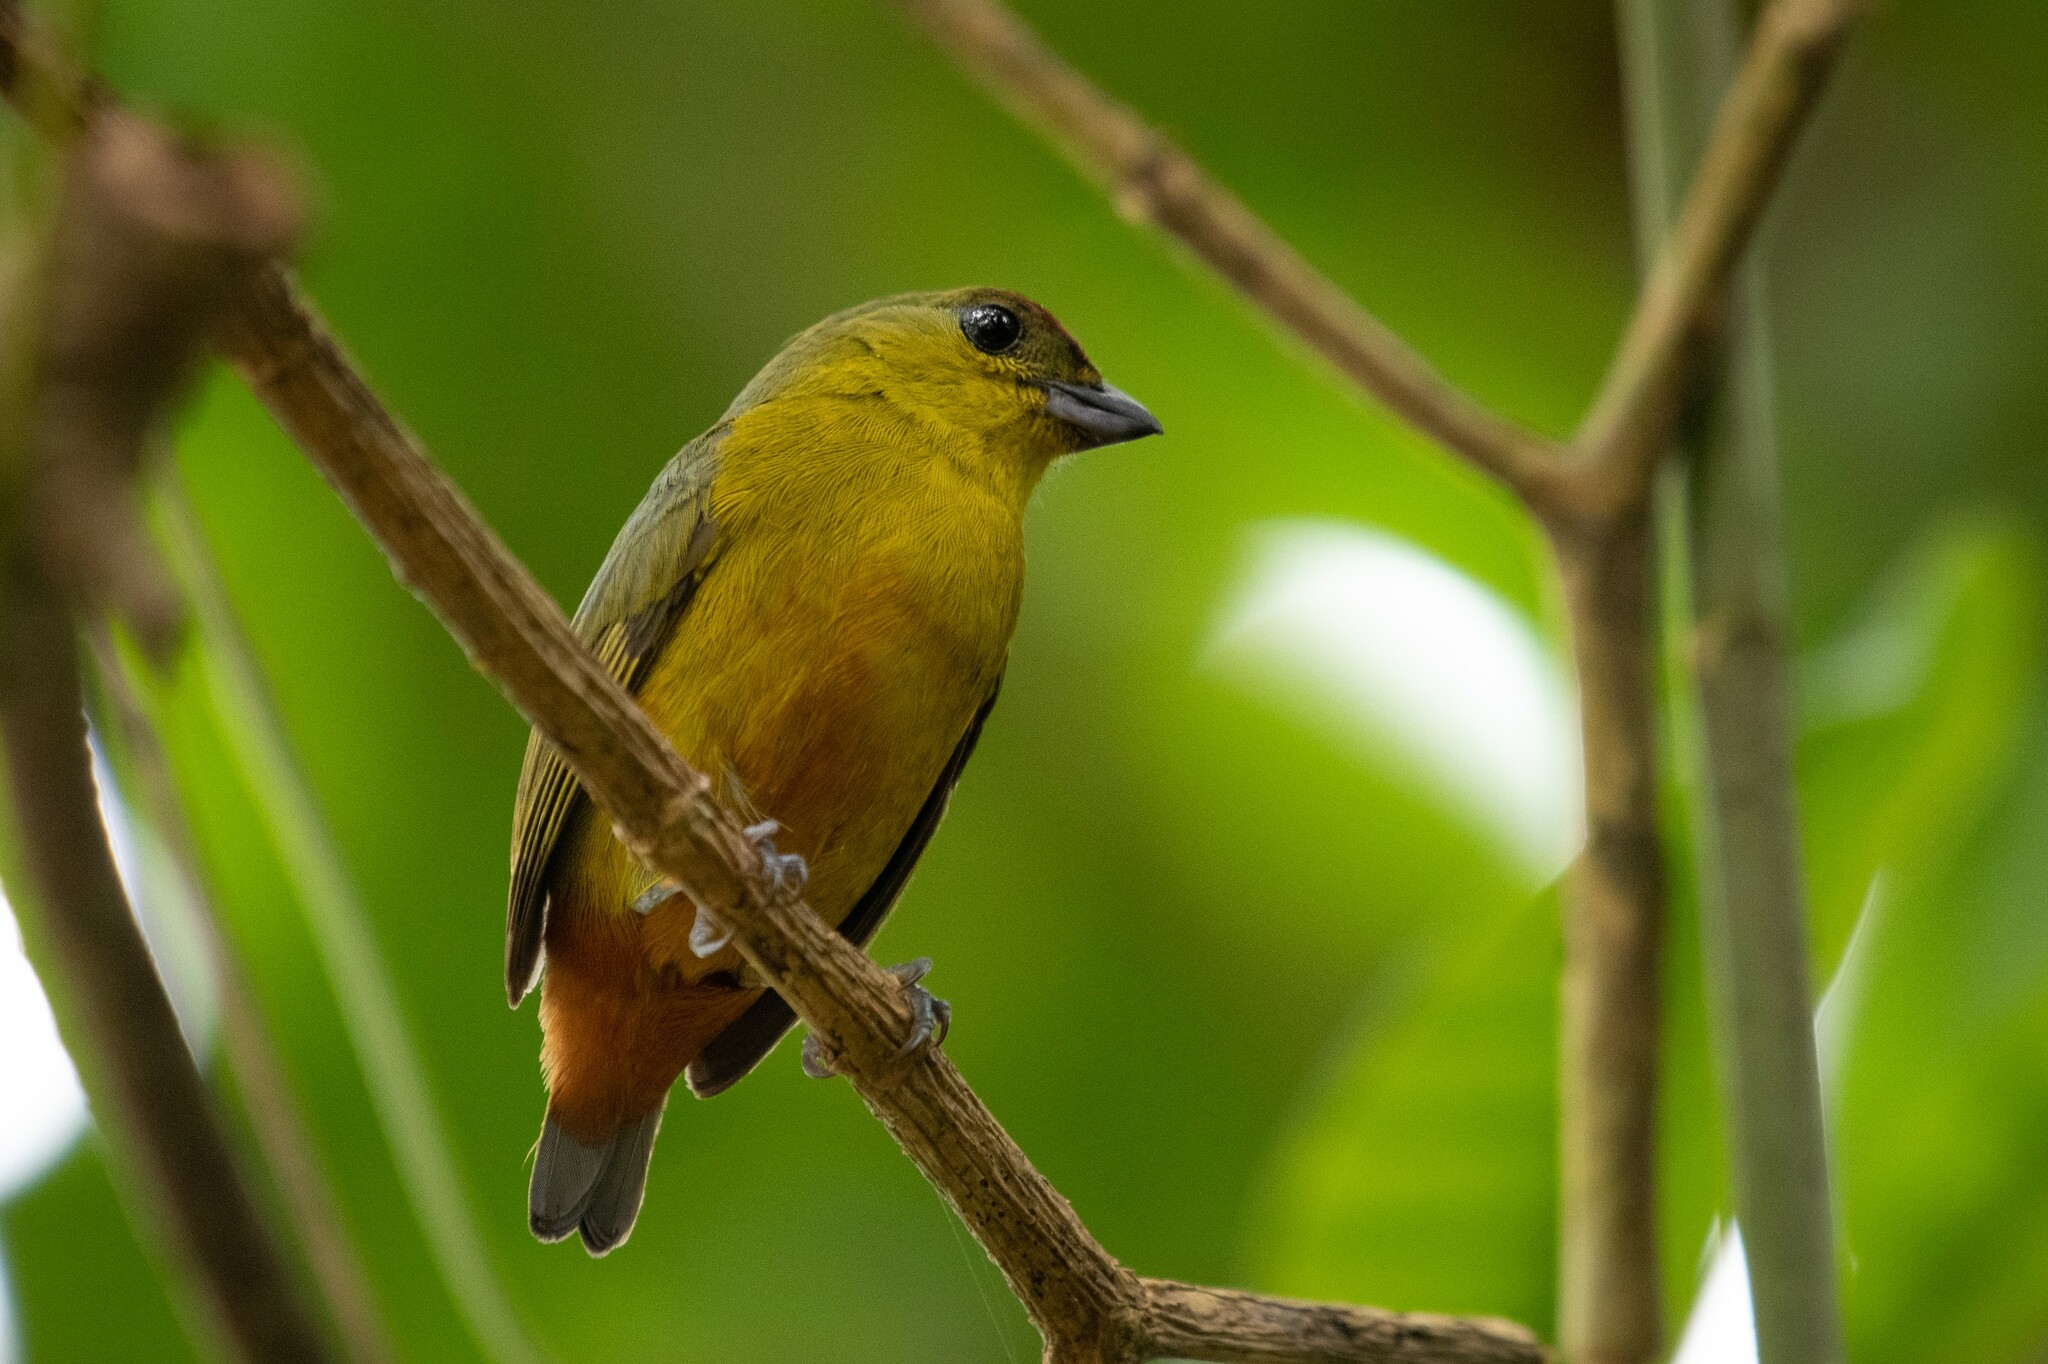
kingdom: Animalia
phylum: Chordata
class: Aves
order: Passeriformes
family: Fringillidae
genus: Euphonia
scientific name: Euphonia gouldi
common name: Olive-backed euphonia
